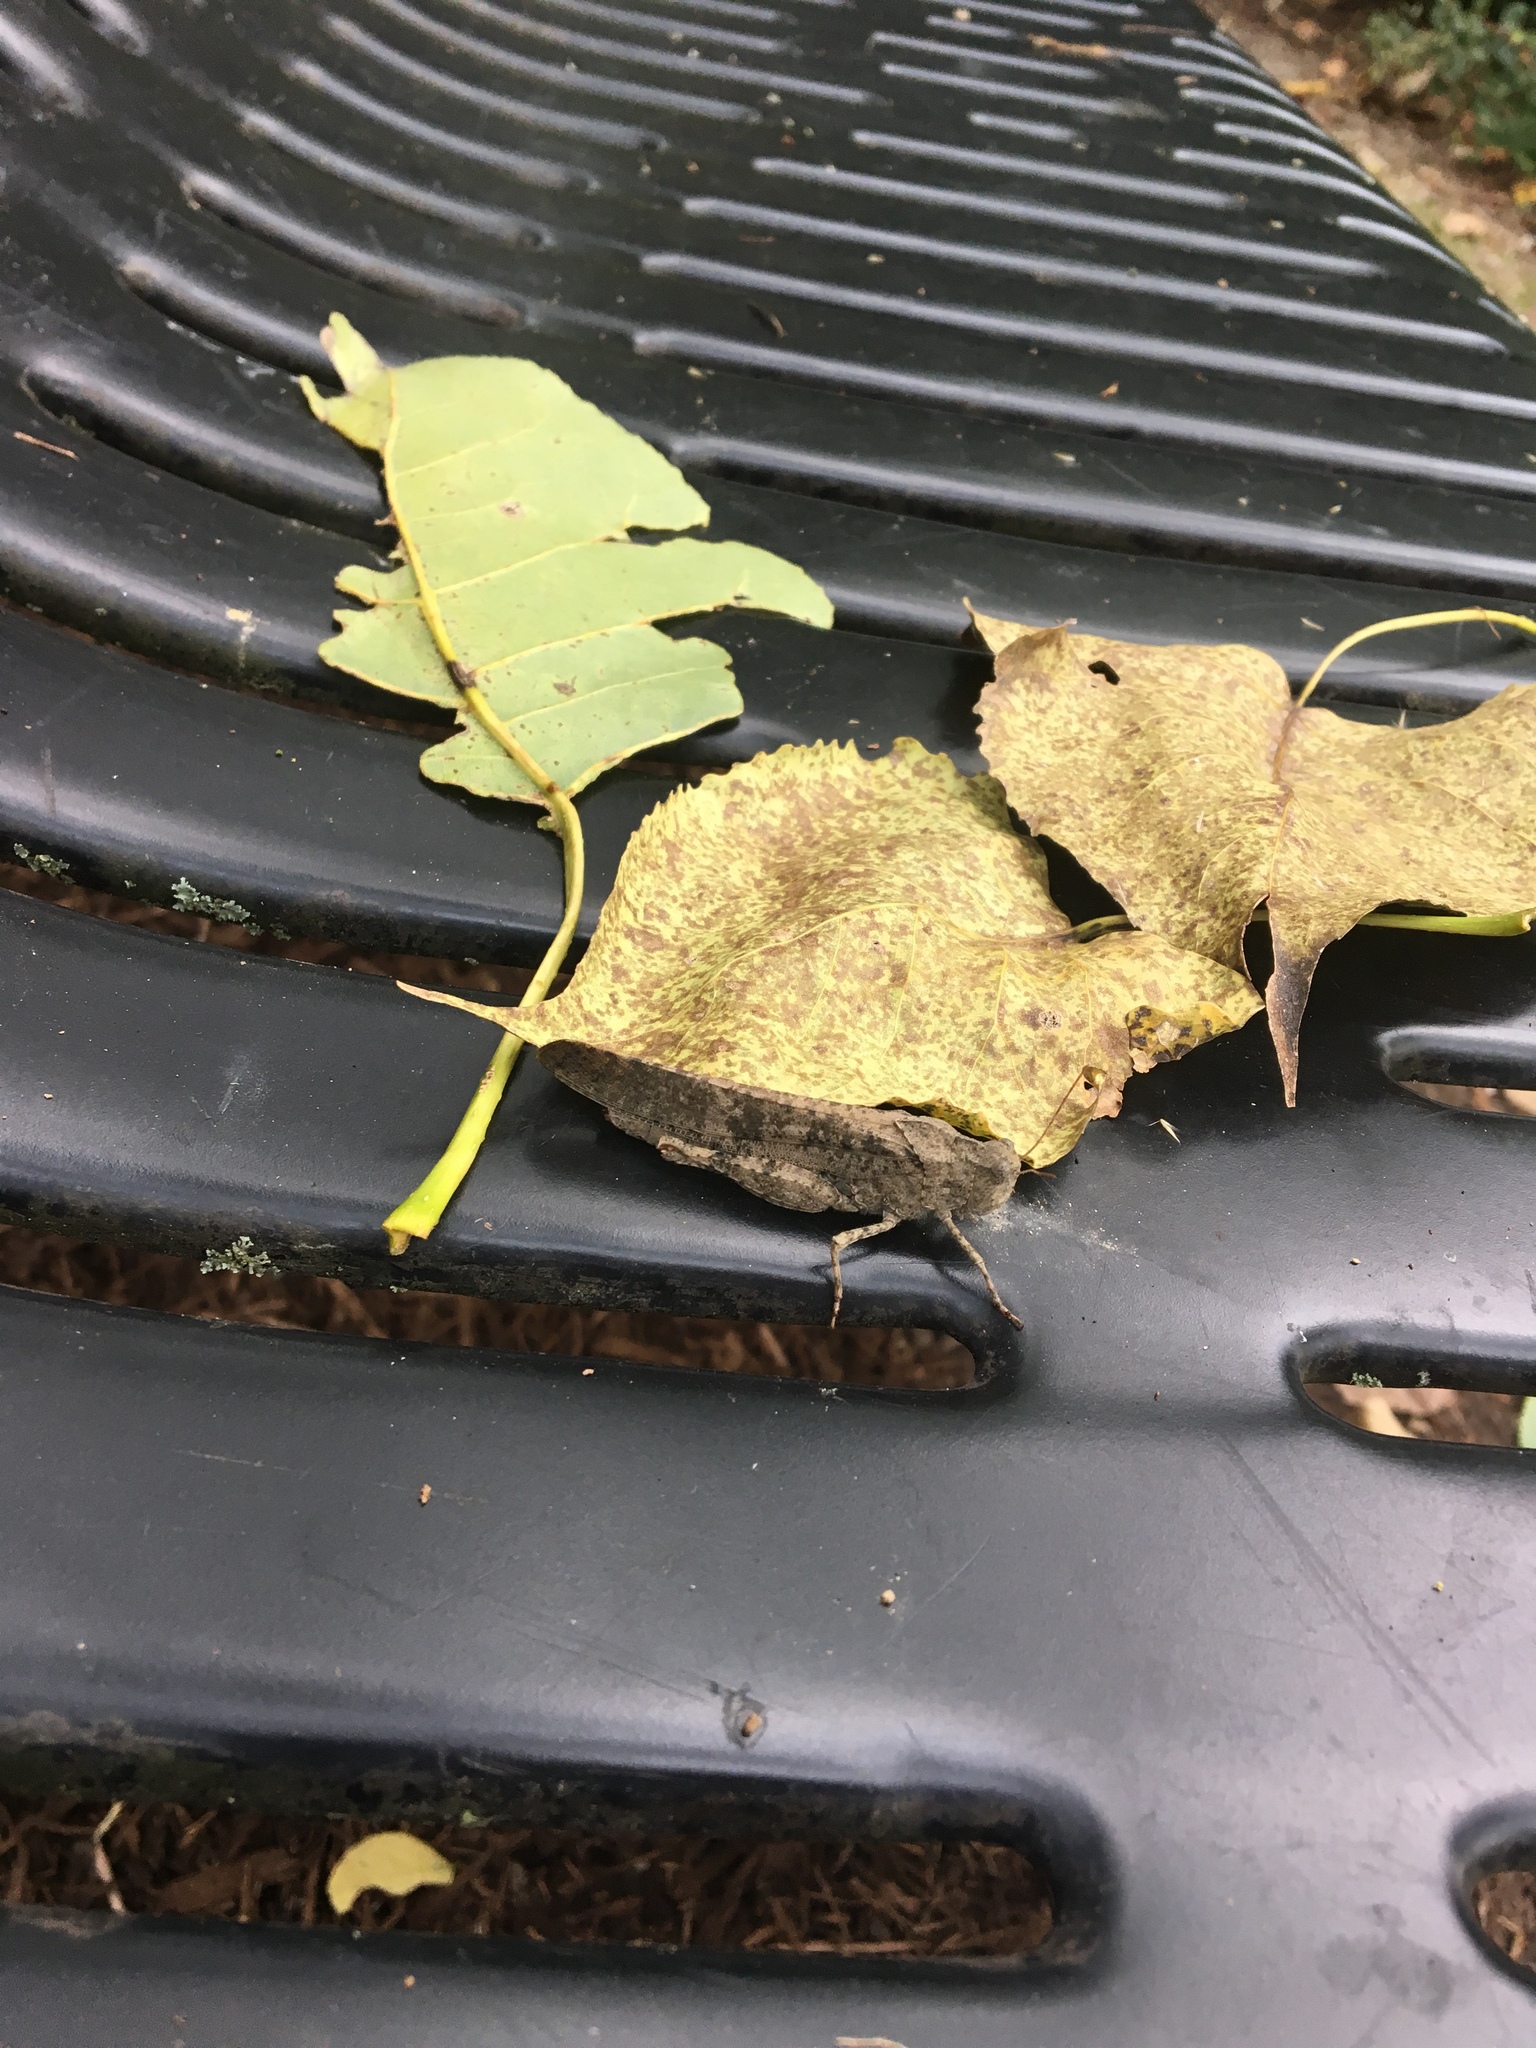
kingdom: Animalia
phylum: Arthropoda
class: Insecta
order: Orthoptera
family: Acrididae
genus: Dissosteira
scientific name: Dissosteira carolina
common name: Carolina grasshopper
